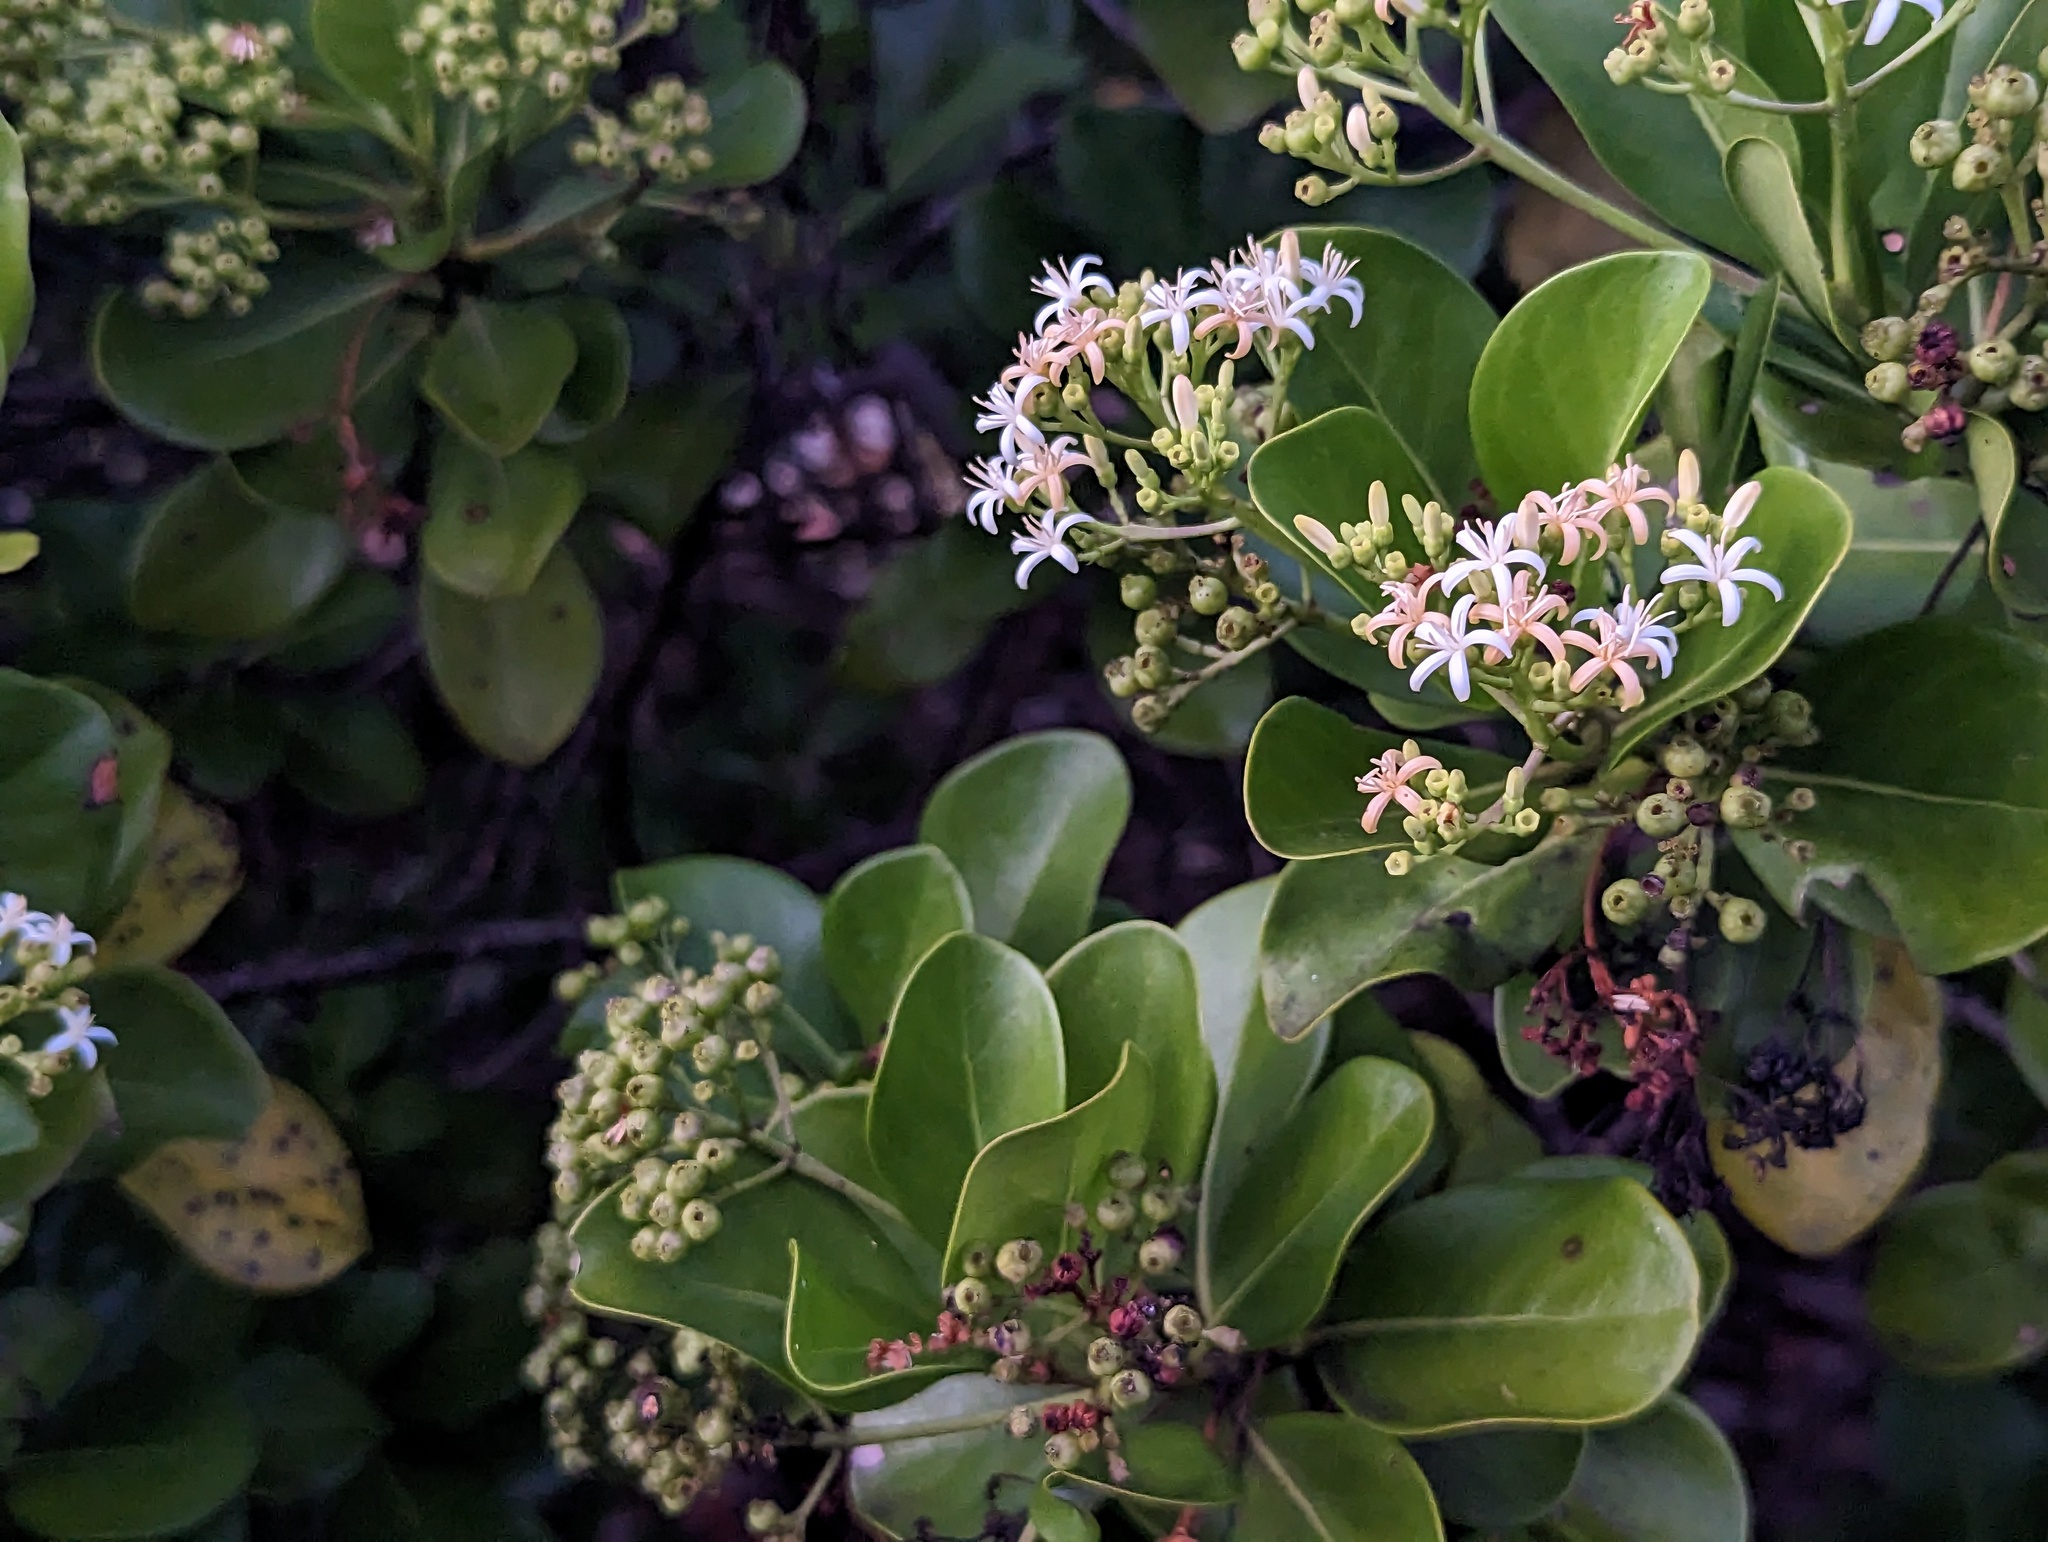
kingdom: Plantae
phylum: Tracheophyta
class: Magnoliopsida
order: Gentianales
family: Rubiaceae
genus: Erithalis
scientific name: Erithalis fruticosa
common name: Candlewood
